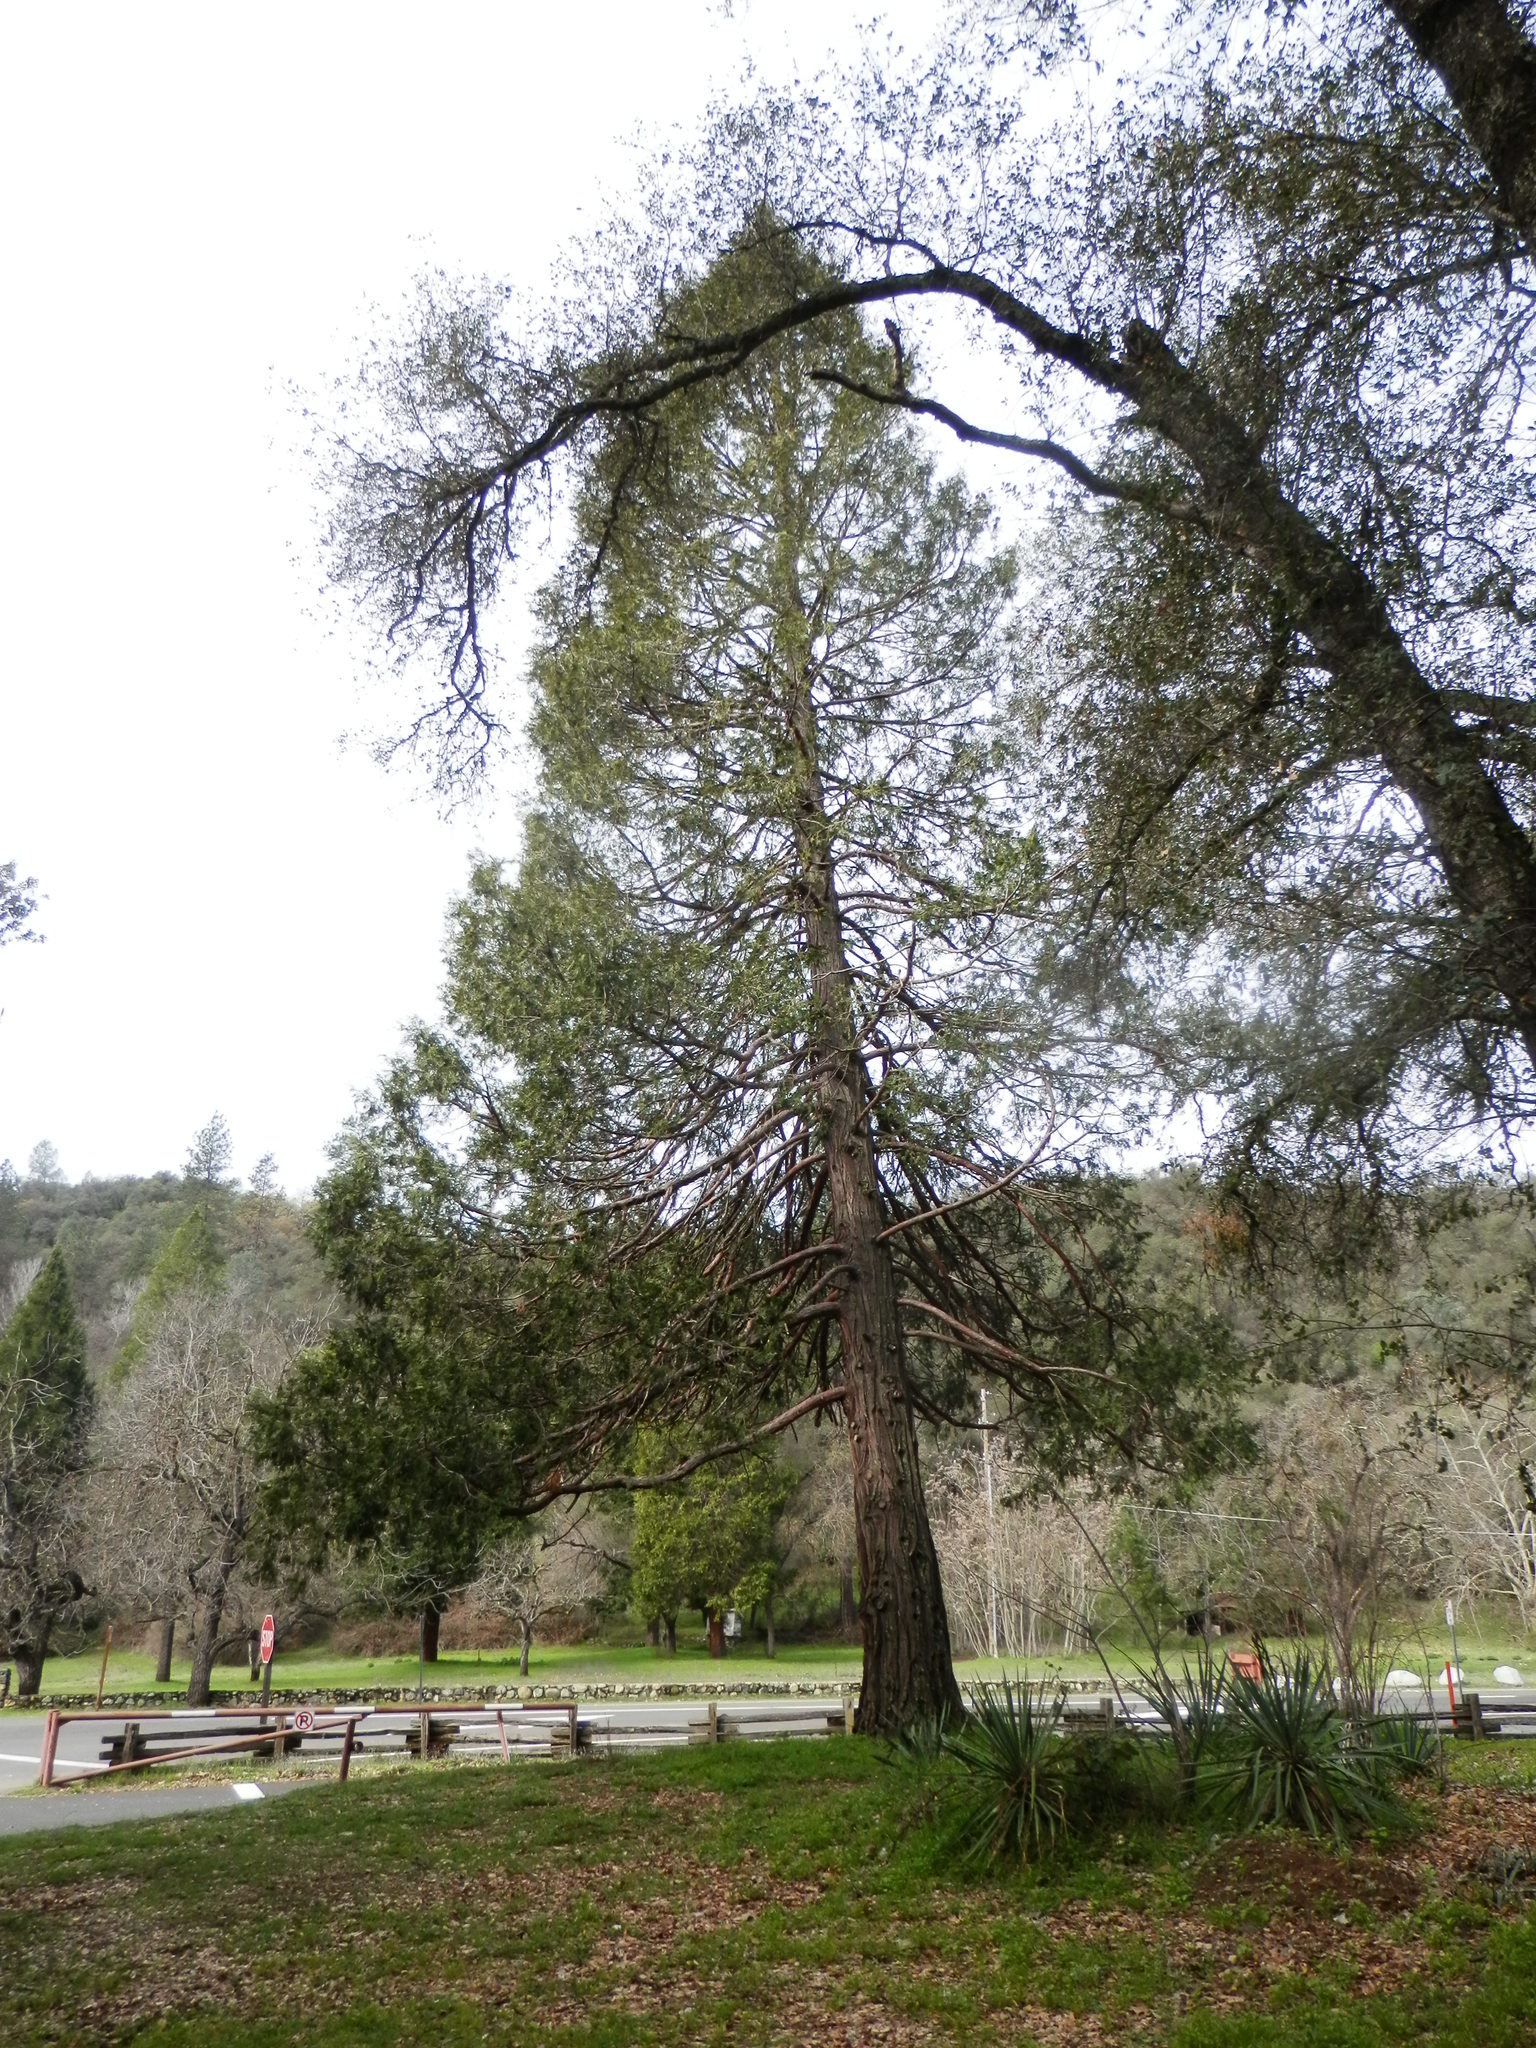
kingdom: Plantae
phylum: Tracheophyta
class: Pinopsida
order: Pinales
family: Cupressaceae
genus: Calocedrus
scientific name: Calocedrus decurrens
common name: Californian incense-cedar
